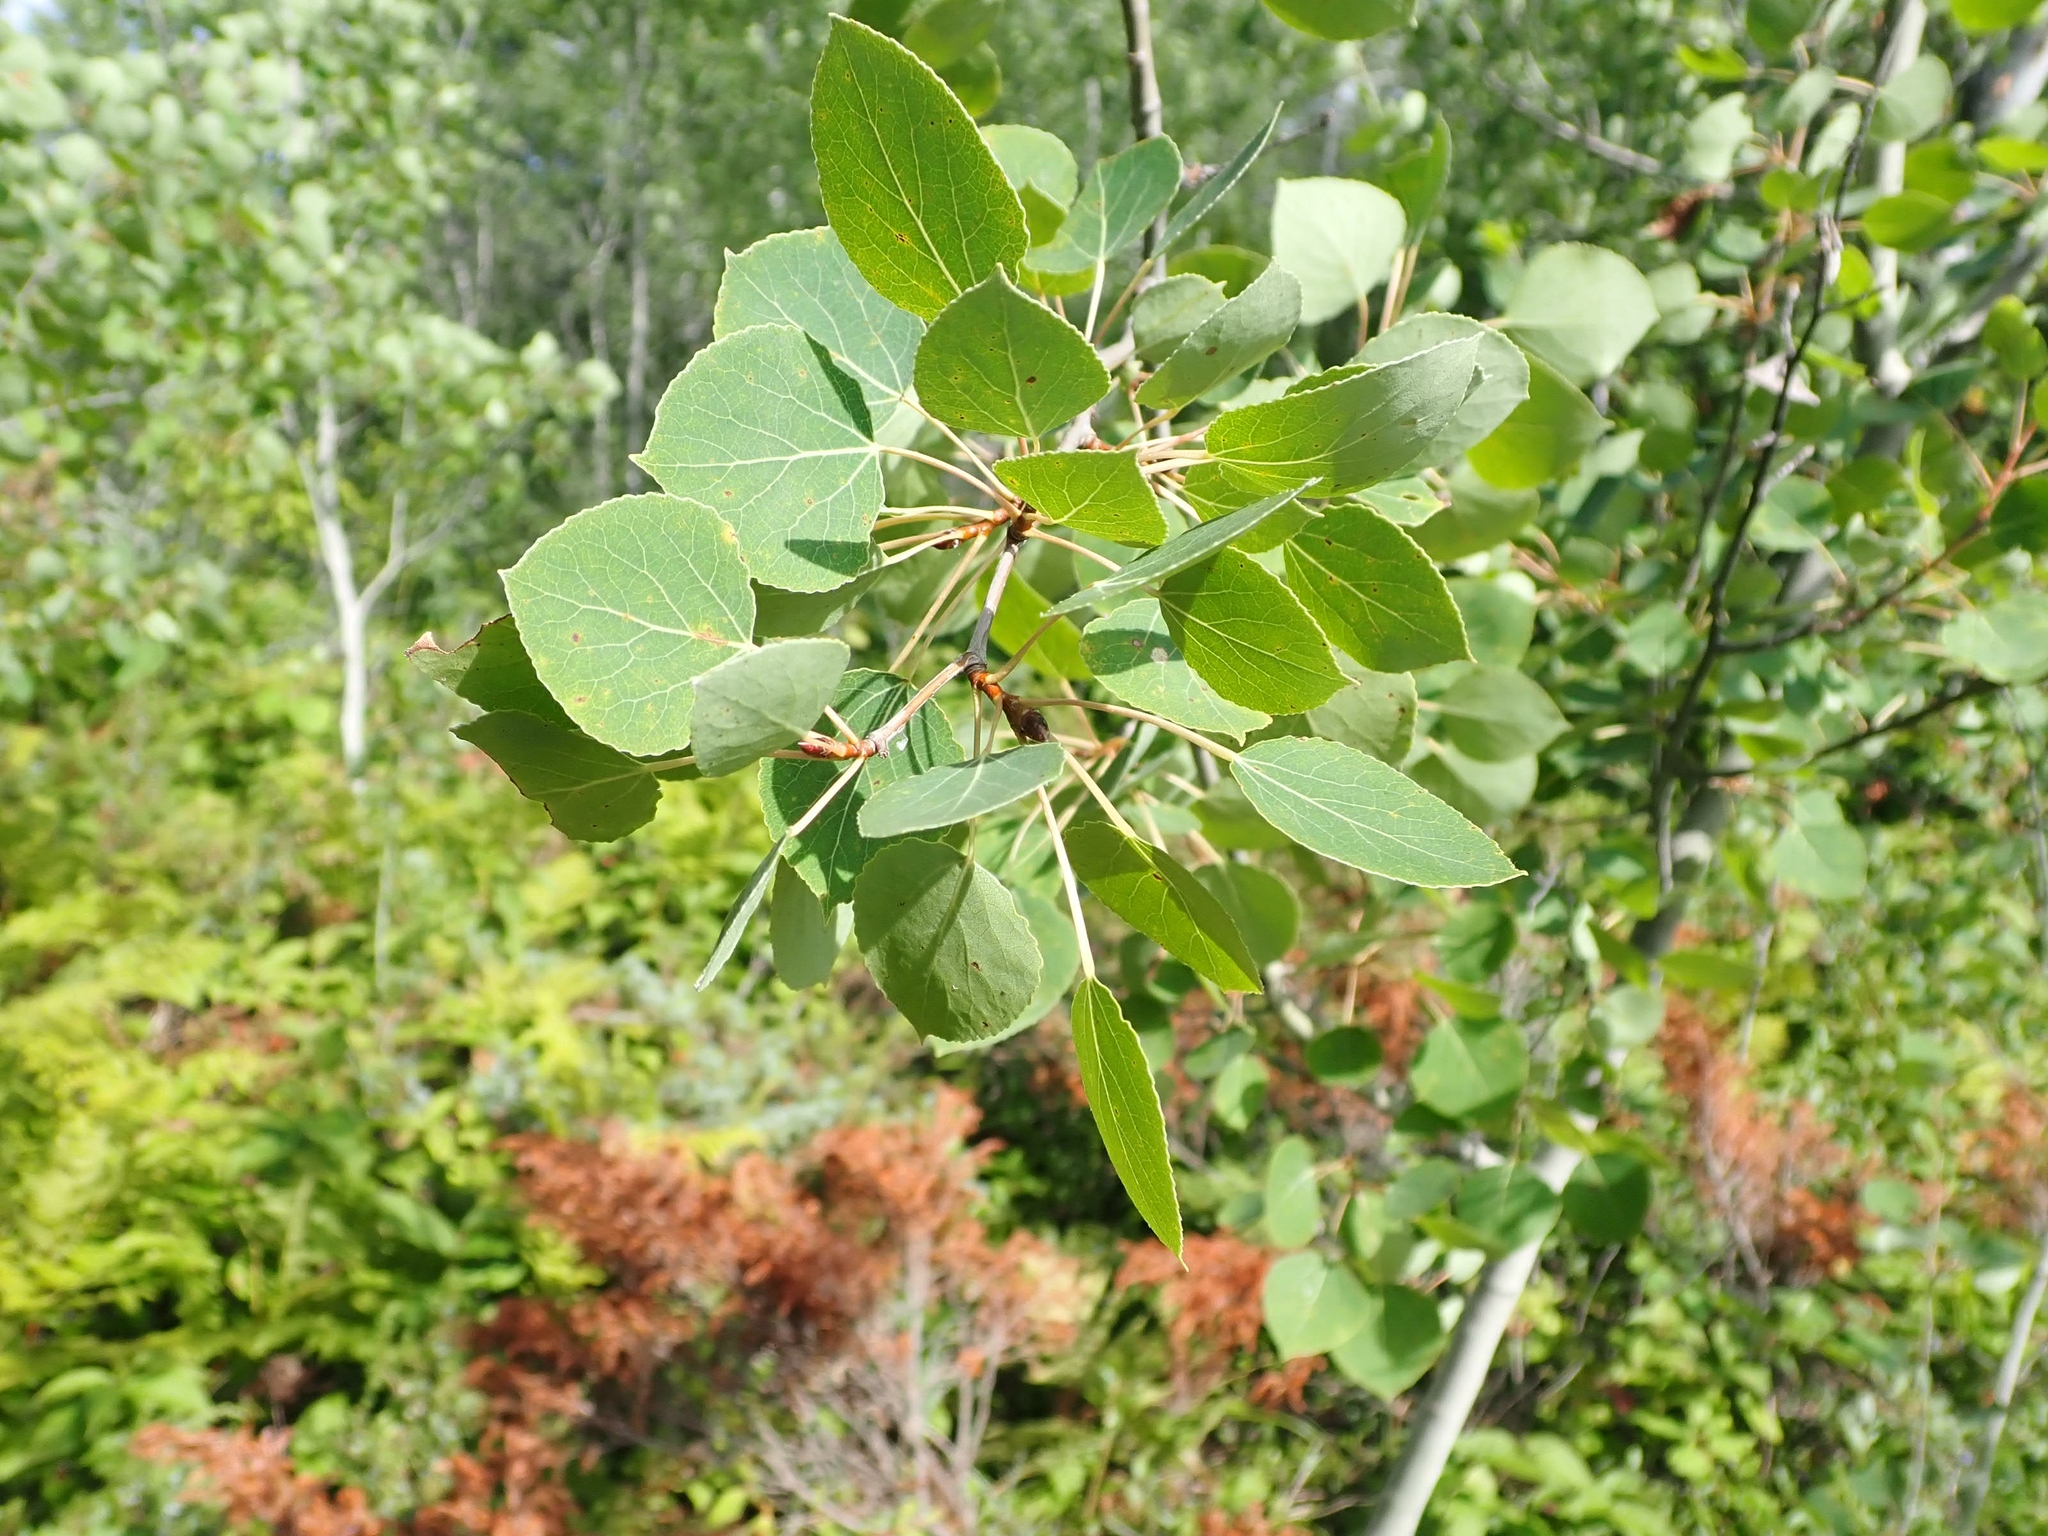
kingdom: Plantae
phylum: Tracheophyta
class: Magnoliopsida
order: Malpighiales
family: Salicaceae
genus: Populus
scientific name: Populus tremuloides
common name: Quaking aspen
